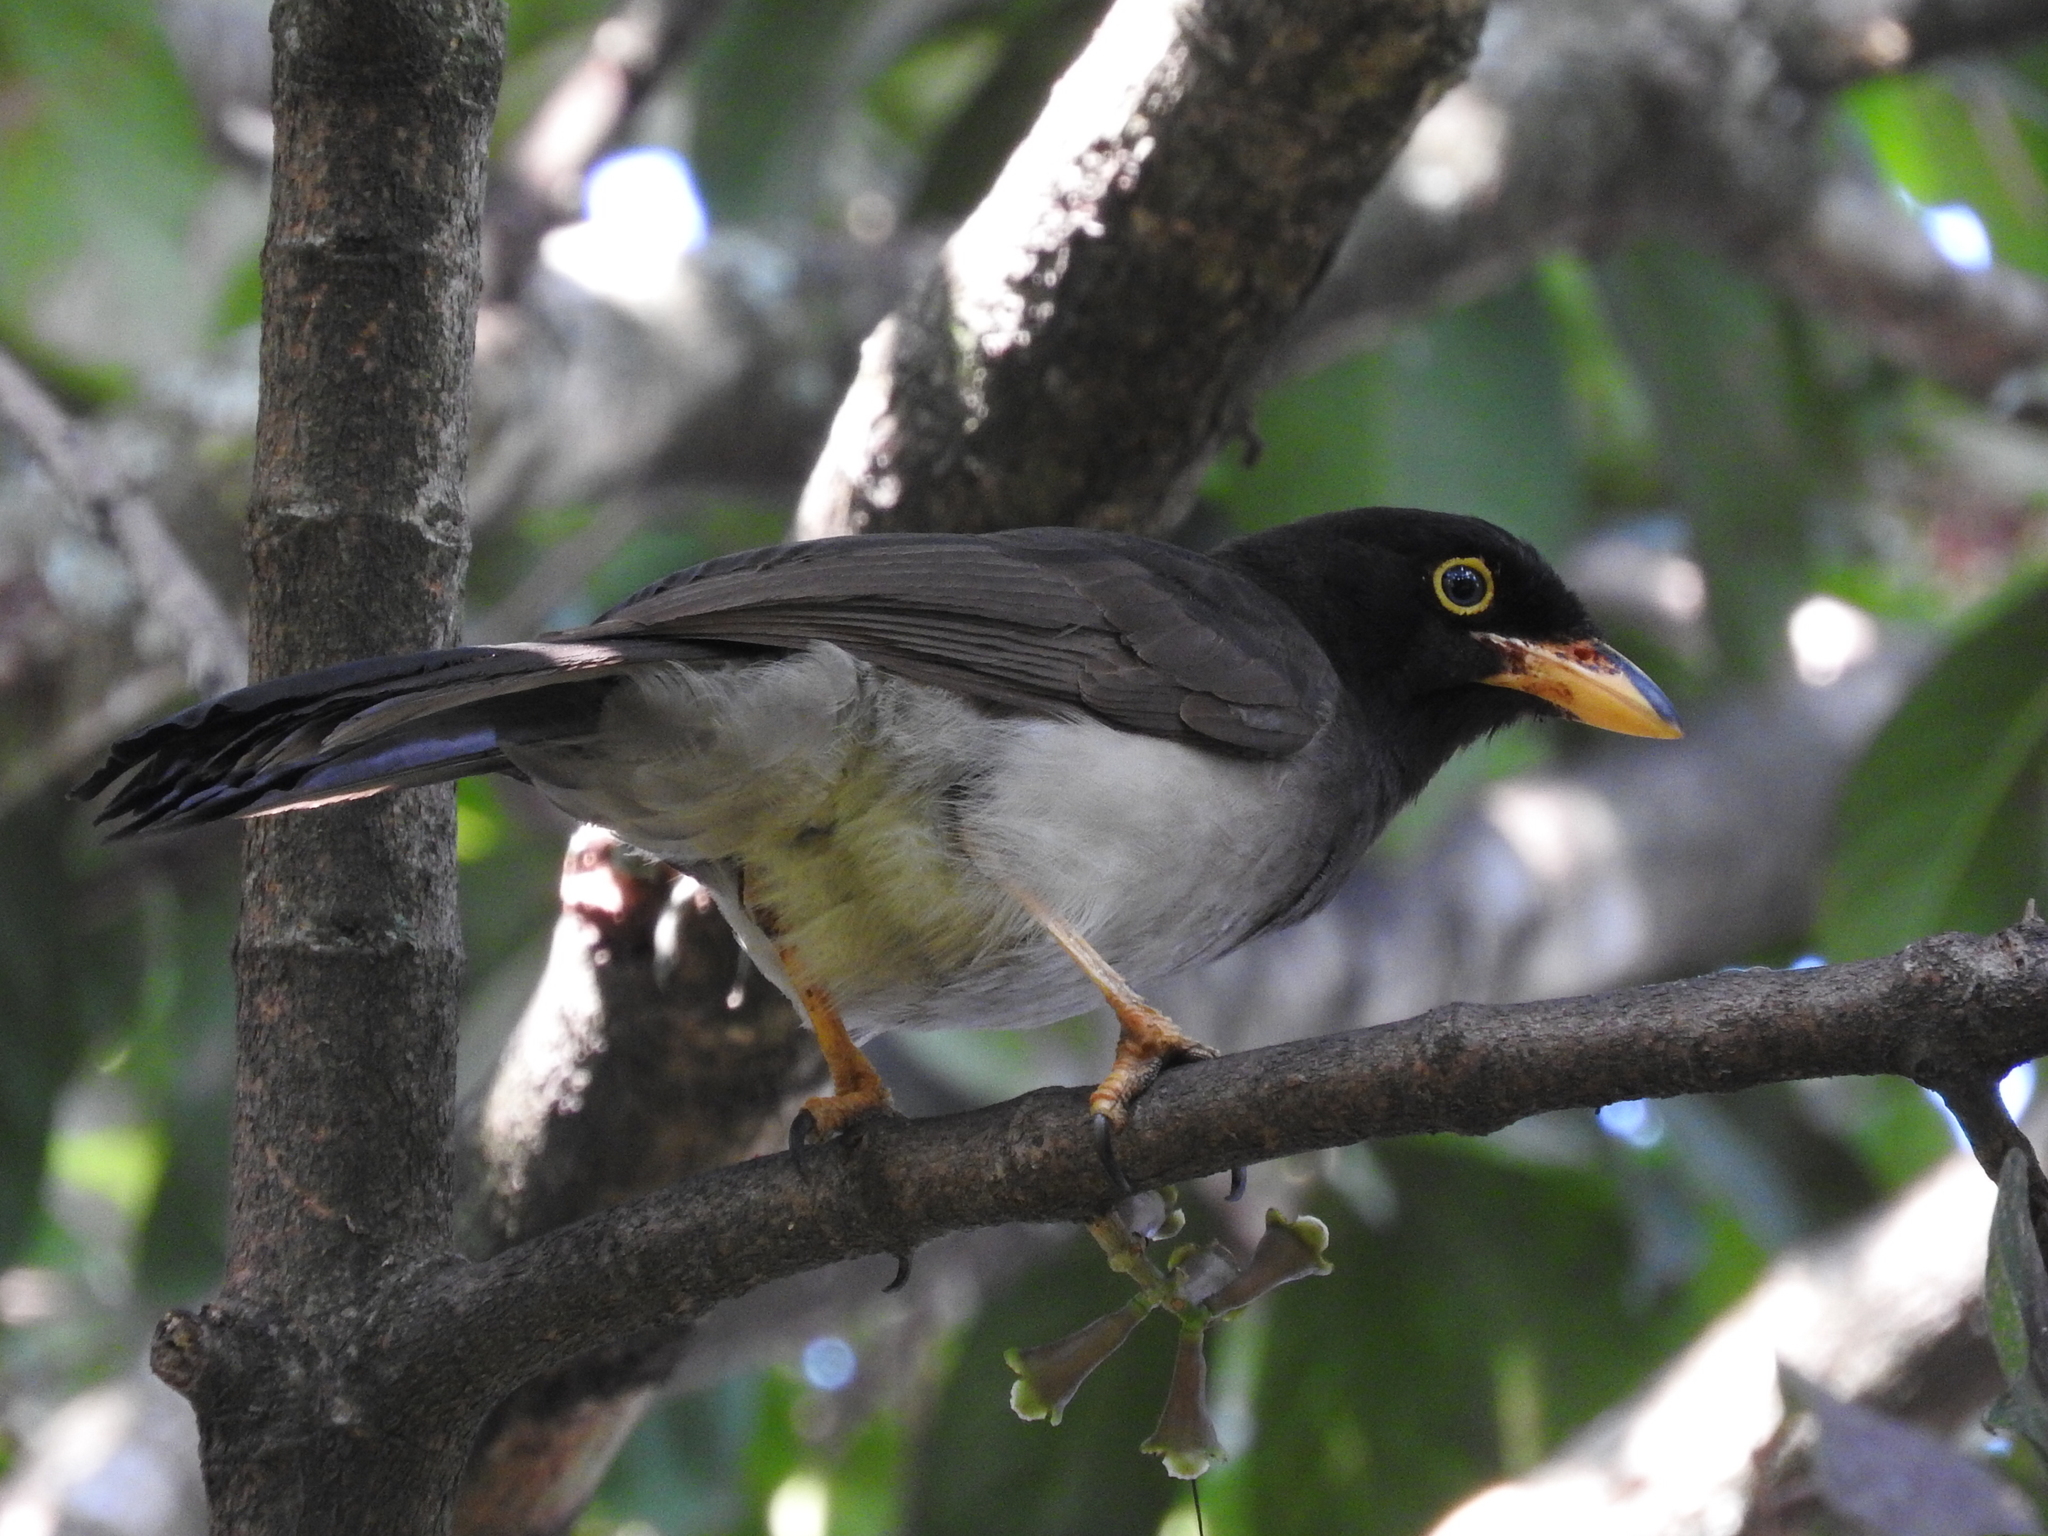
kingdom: Animalia
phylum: Chordata
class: Aves
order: Passeriformes
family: Corvidae
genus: Psilorhinus
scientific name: Psilorhinus morio
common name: Brown jay
